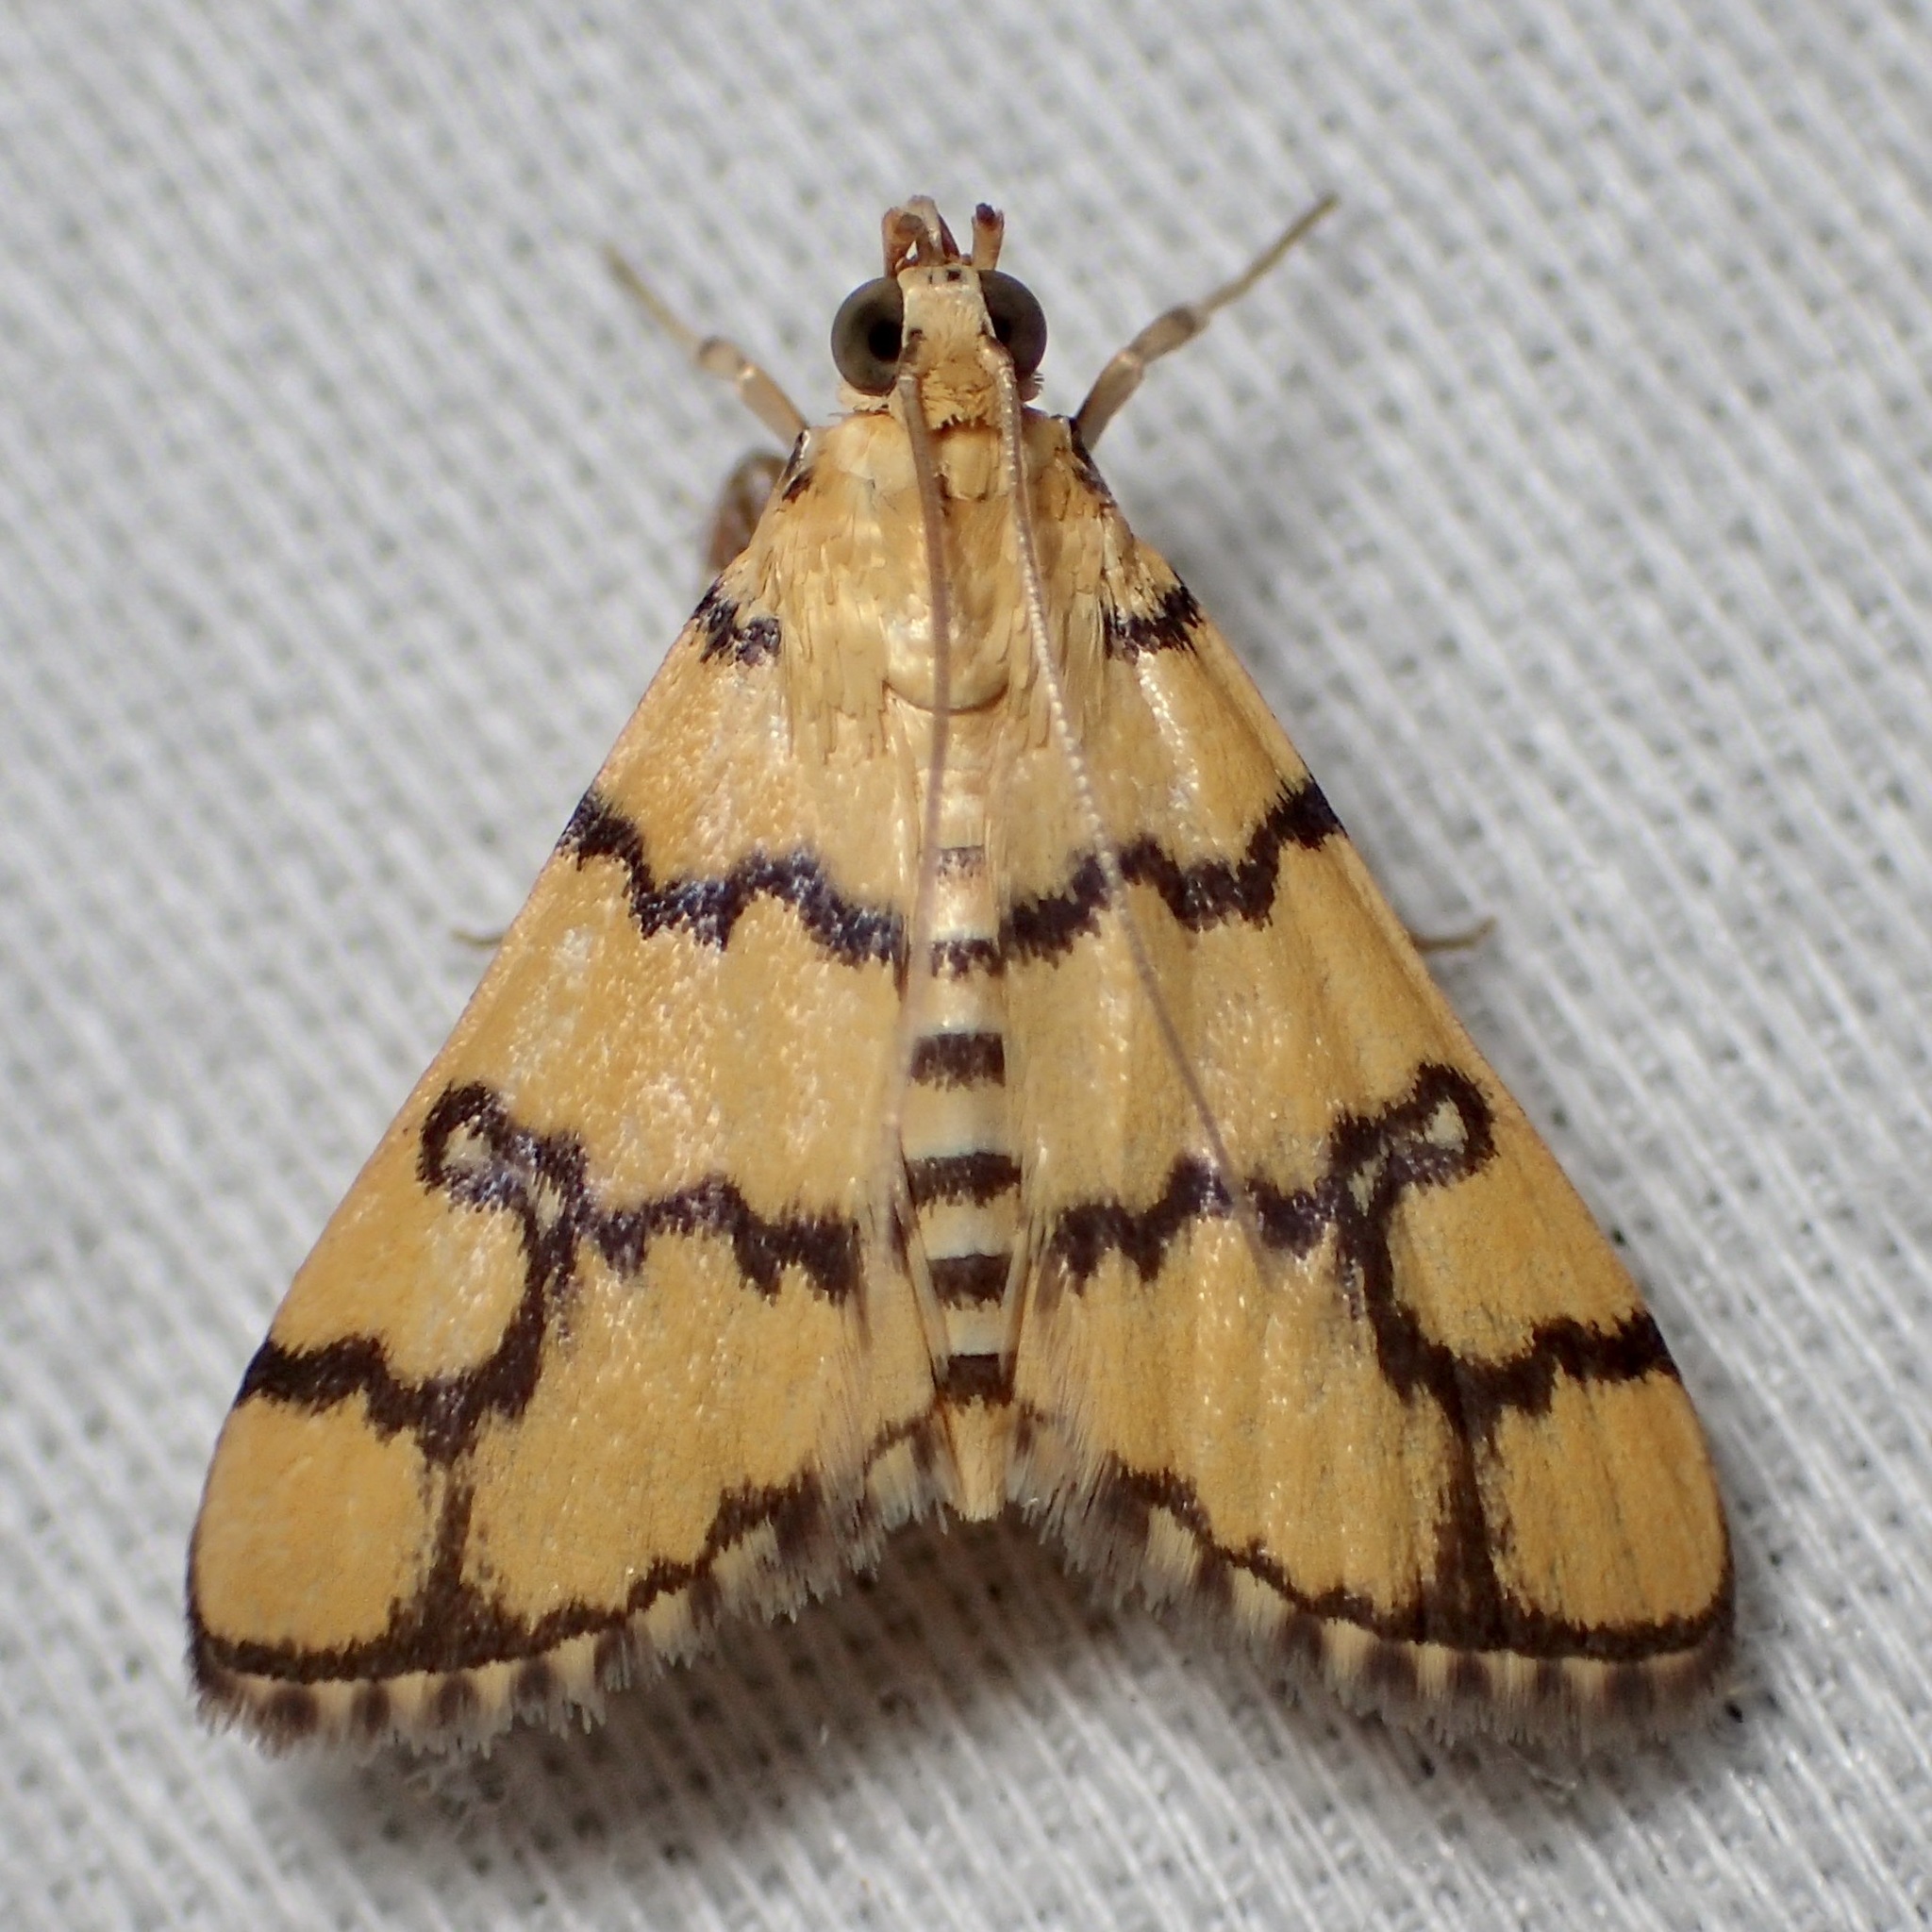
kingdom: Animalia
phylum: Arthropoda
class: Insecta
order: Lepidoptera
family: Crambidae
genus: Glycythyma
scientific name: Glycythyma leonina
